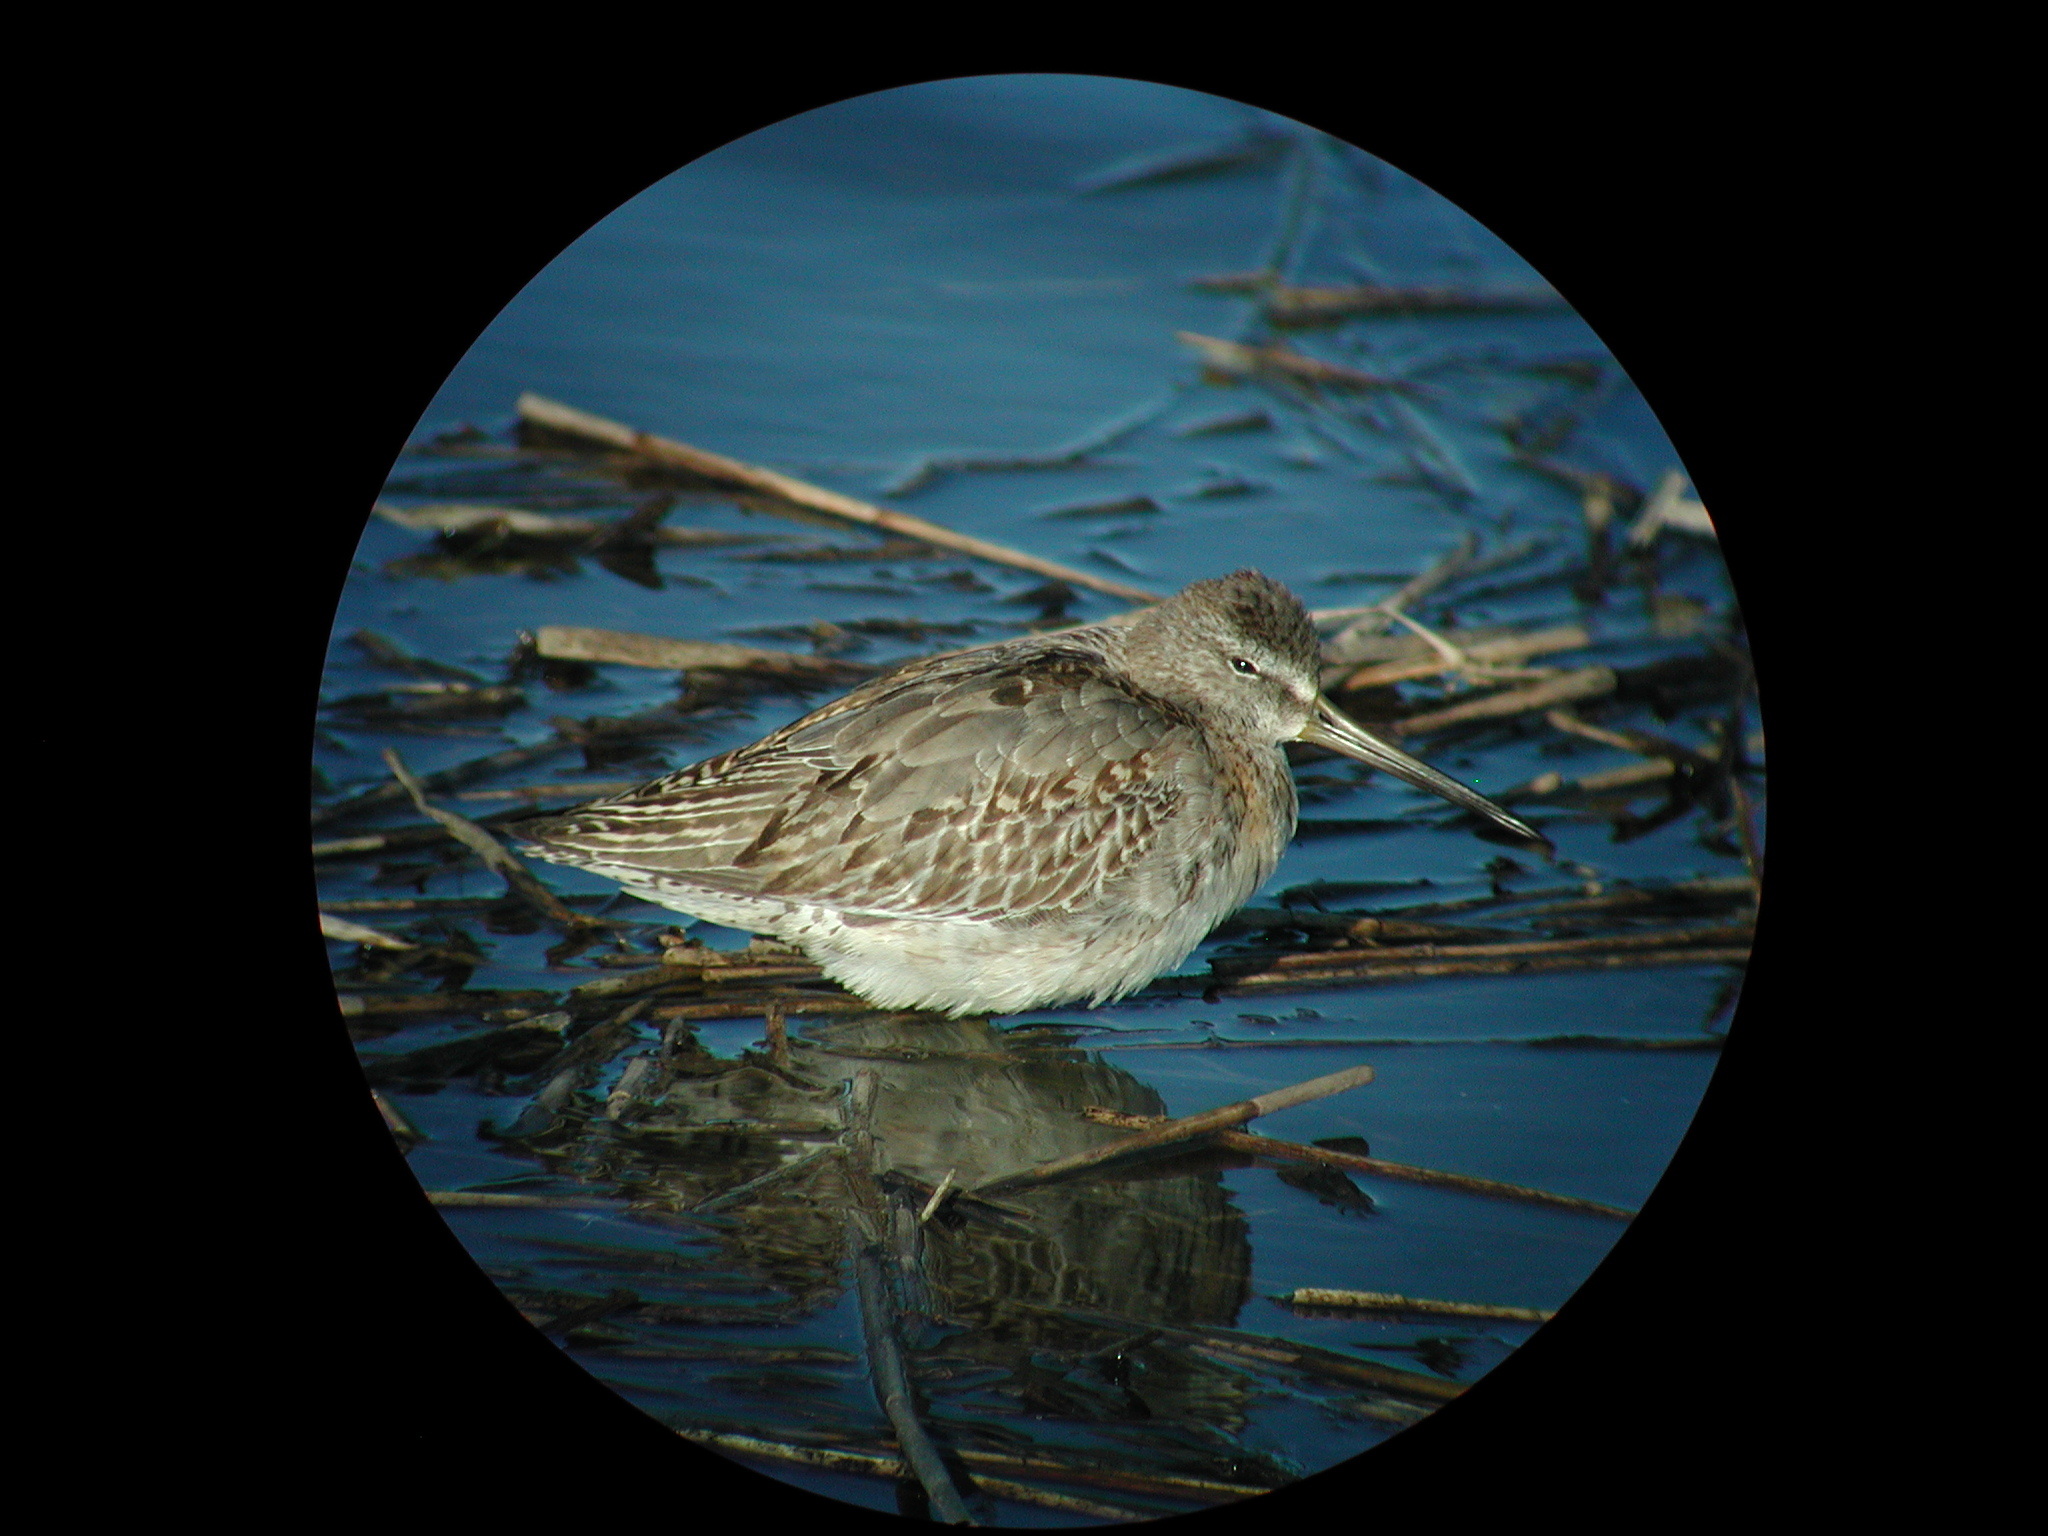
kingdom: Animalia
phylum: Chordata
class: Aves
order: Charadriiformes
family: Scolopacidae
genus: Limnodromus
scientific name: Limnodromus
